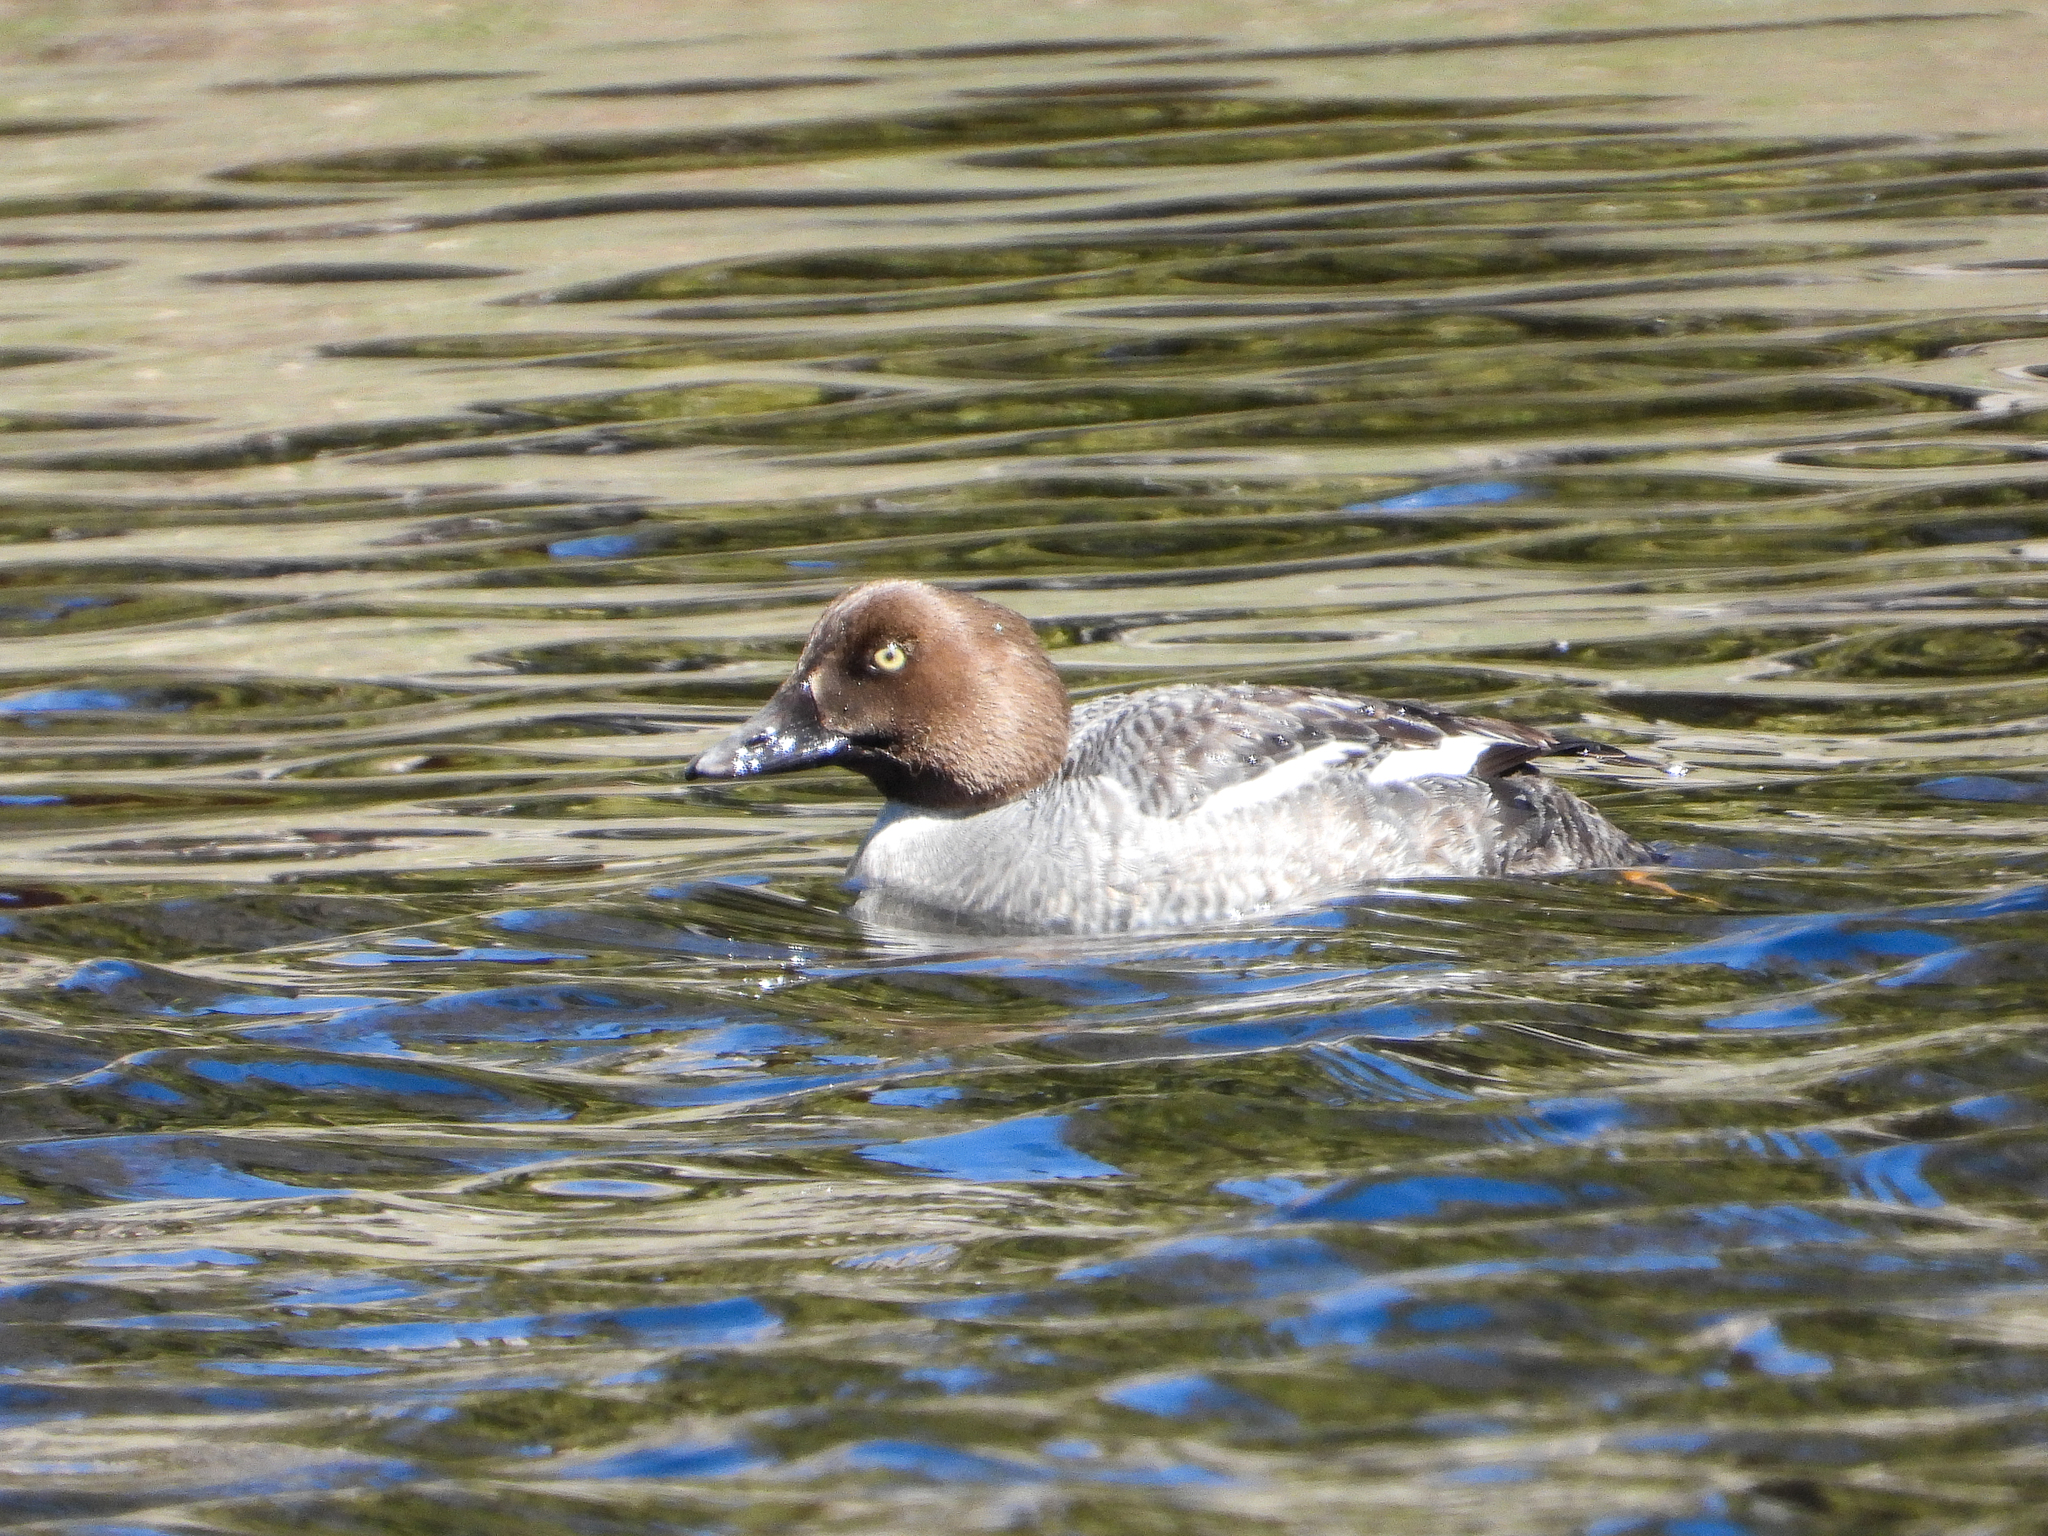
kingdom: Animalia
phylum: Chordata
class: Aves
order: Anseriformes
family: Anatidae
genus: Bucephala
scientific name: Bucephala clangula
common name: Common goldeneye
